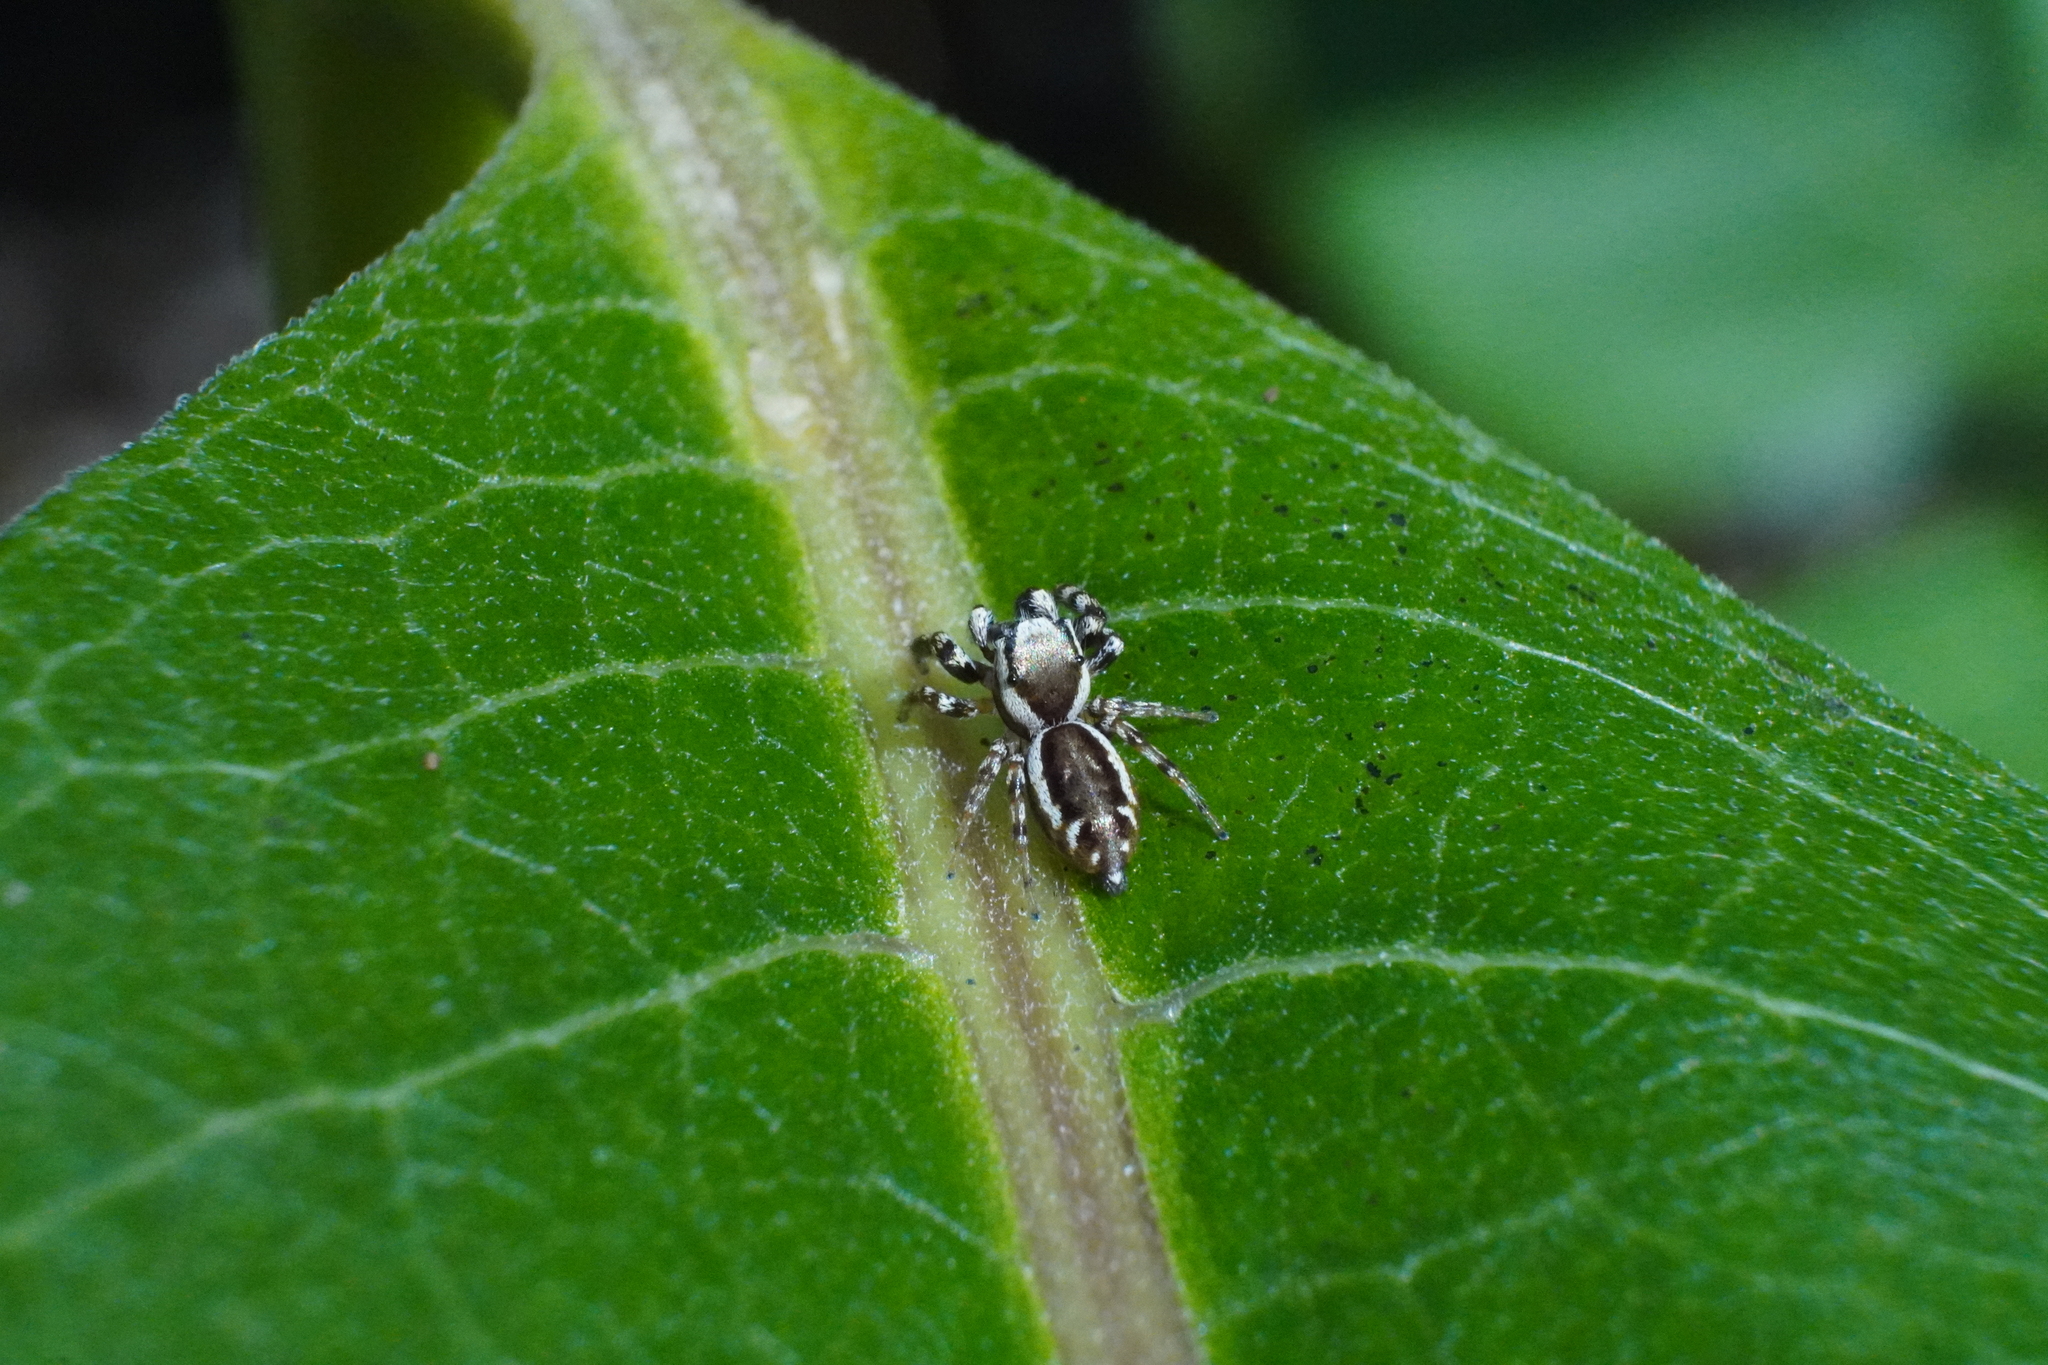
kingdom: Animalia
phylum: Arthropoda
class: Arachnida
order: Araneae
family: Salticidae
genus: Pelegrina
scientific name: Pelegrina proterva
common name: Common white-cheeked jumping spider
